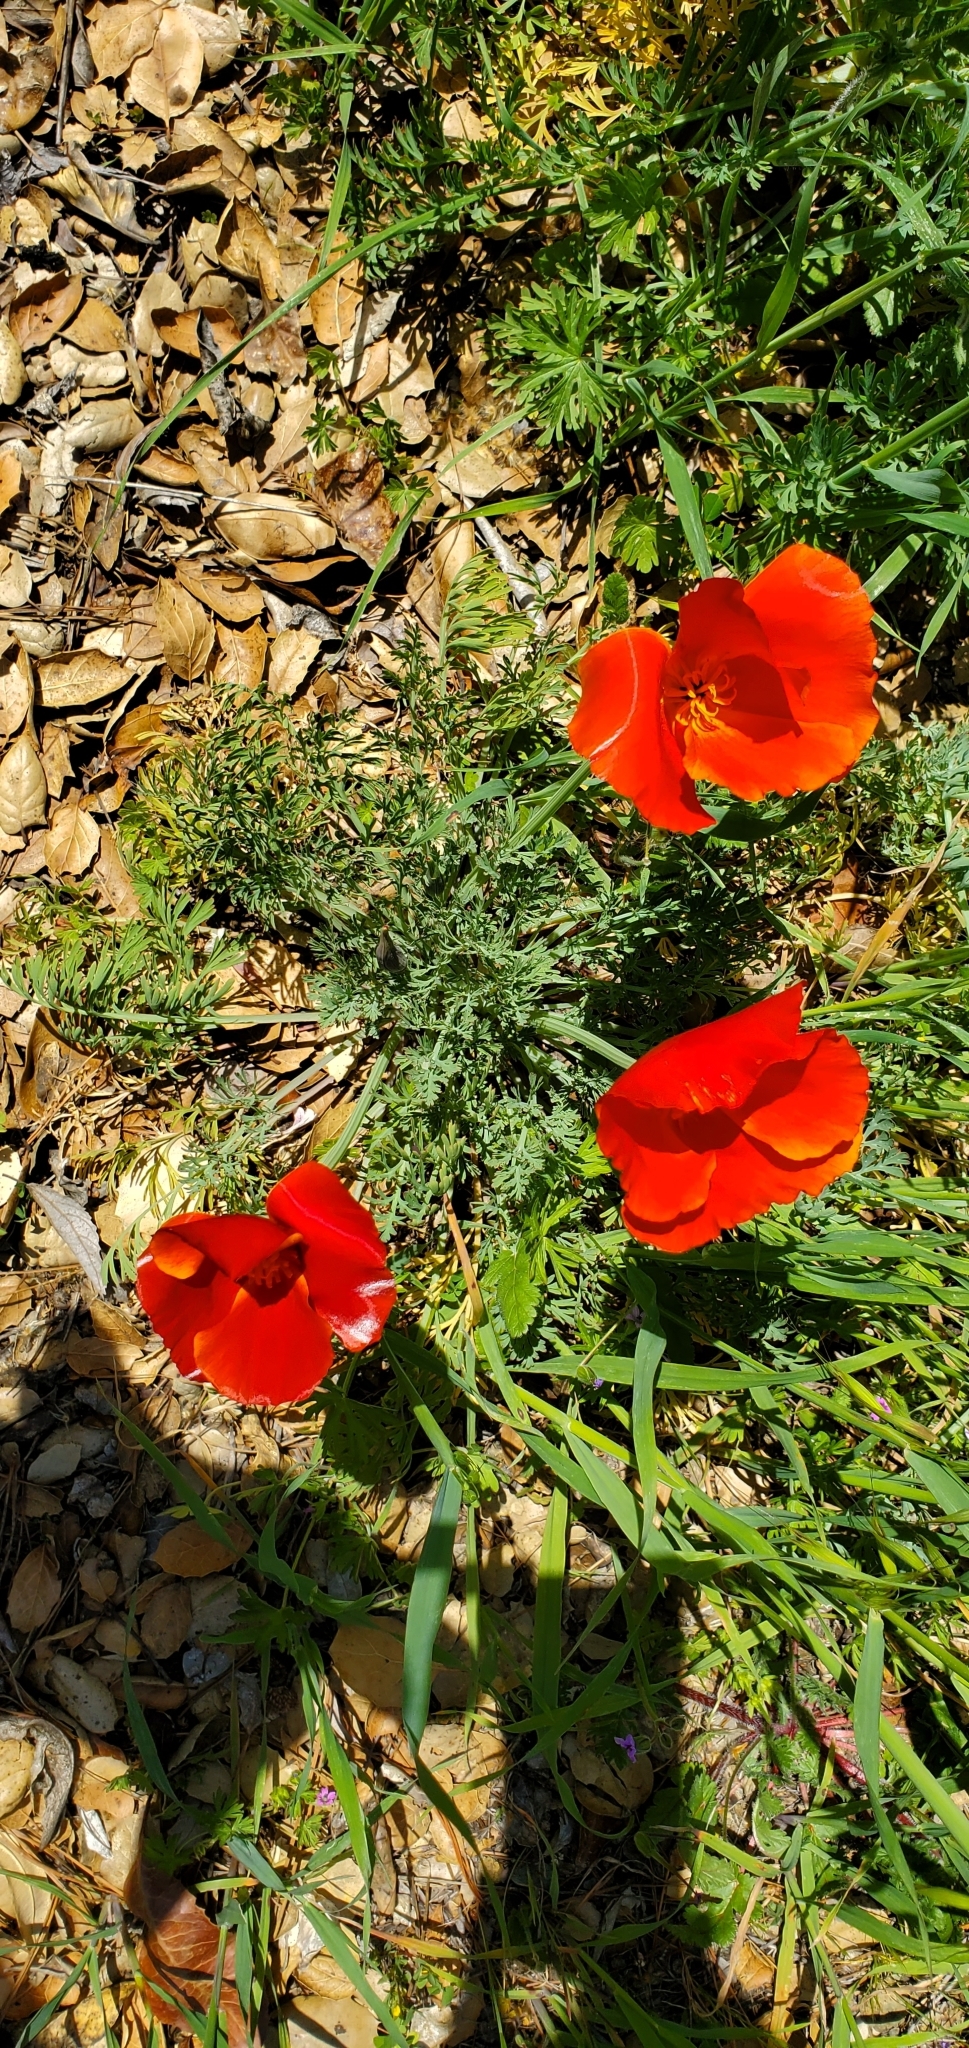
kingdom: Plantae
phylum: Tracheophyta
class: Magnoliopsida
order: Ranunculales
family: Papaveraceae
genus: Eschscholzia
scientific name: Eschscholzia californica
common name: California poppy
